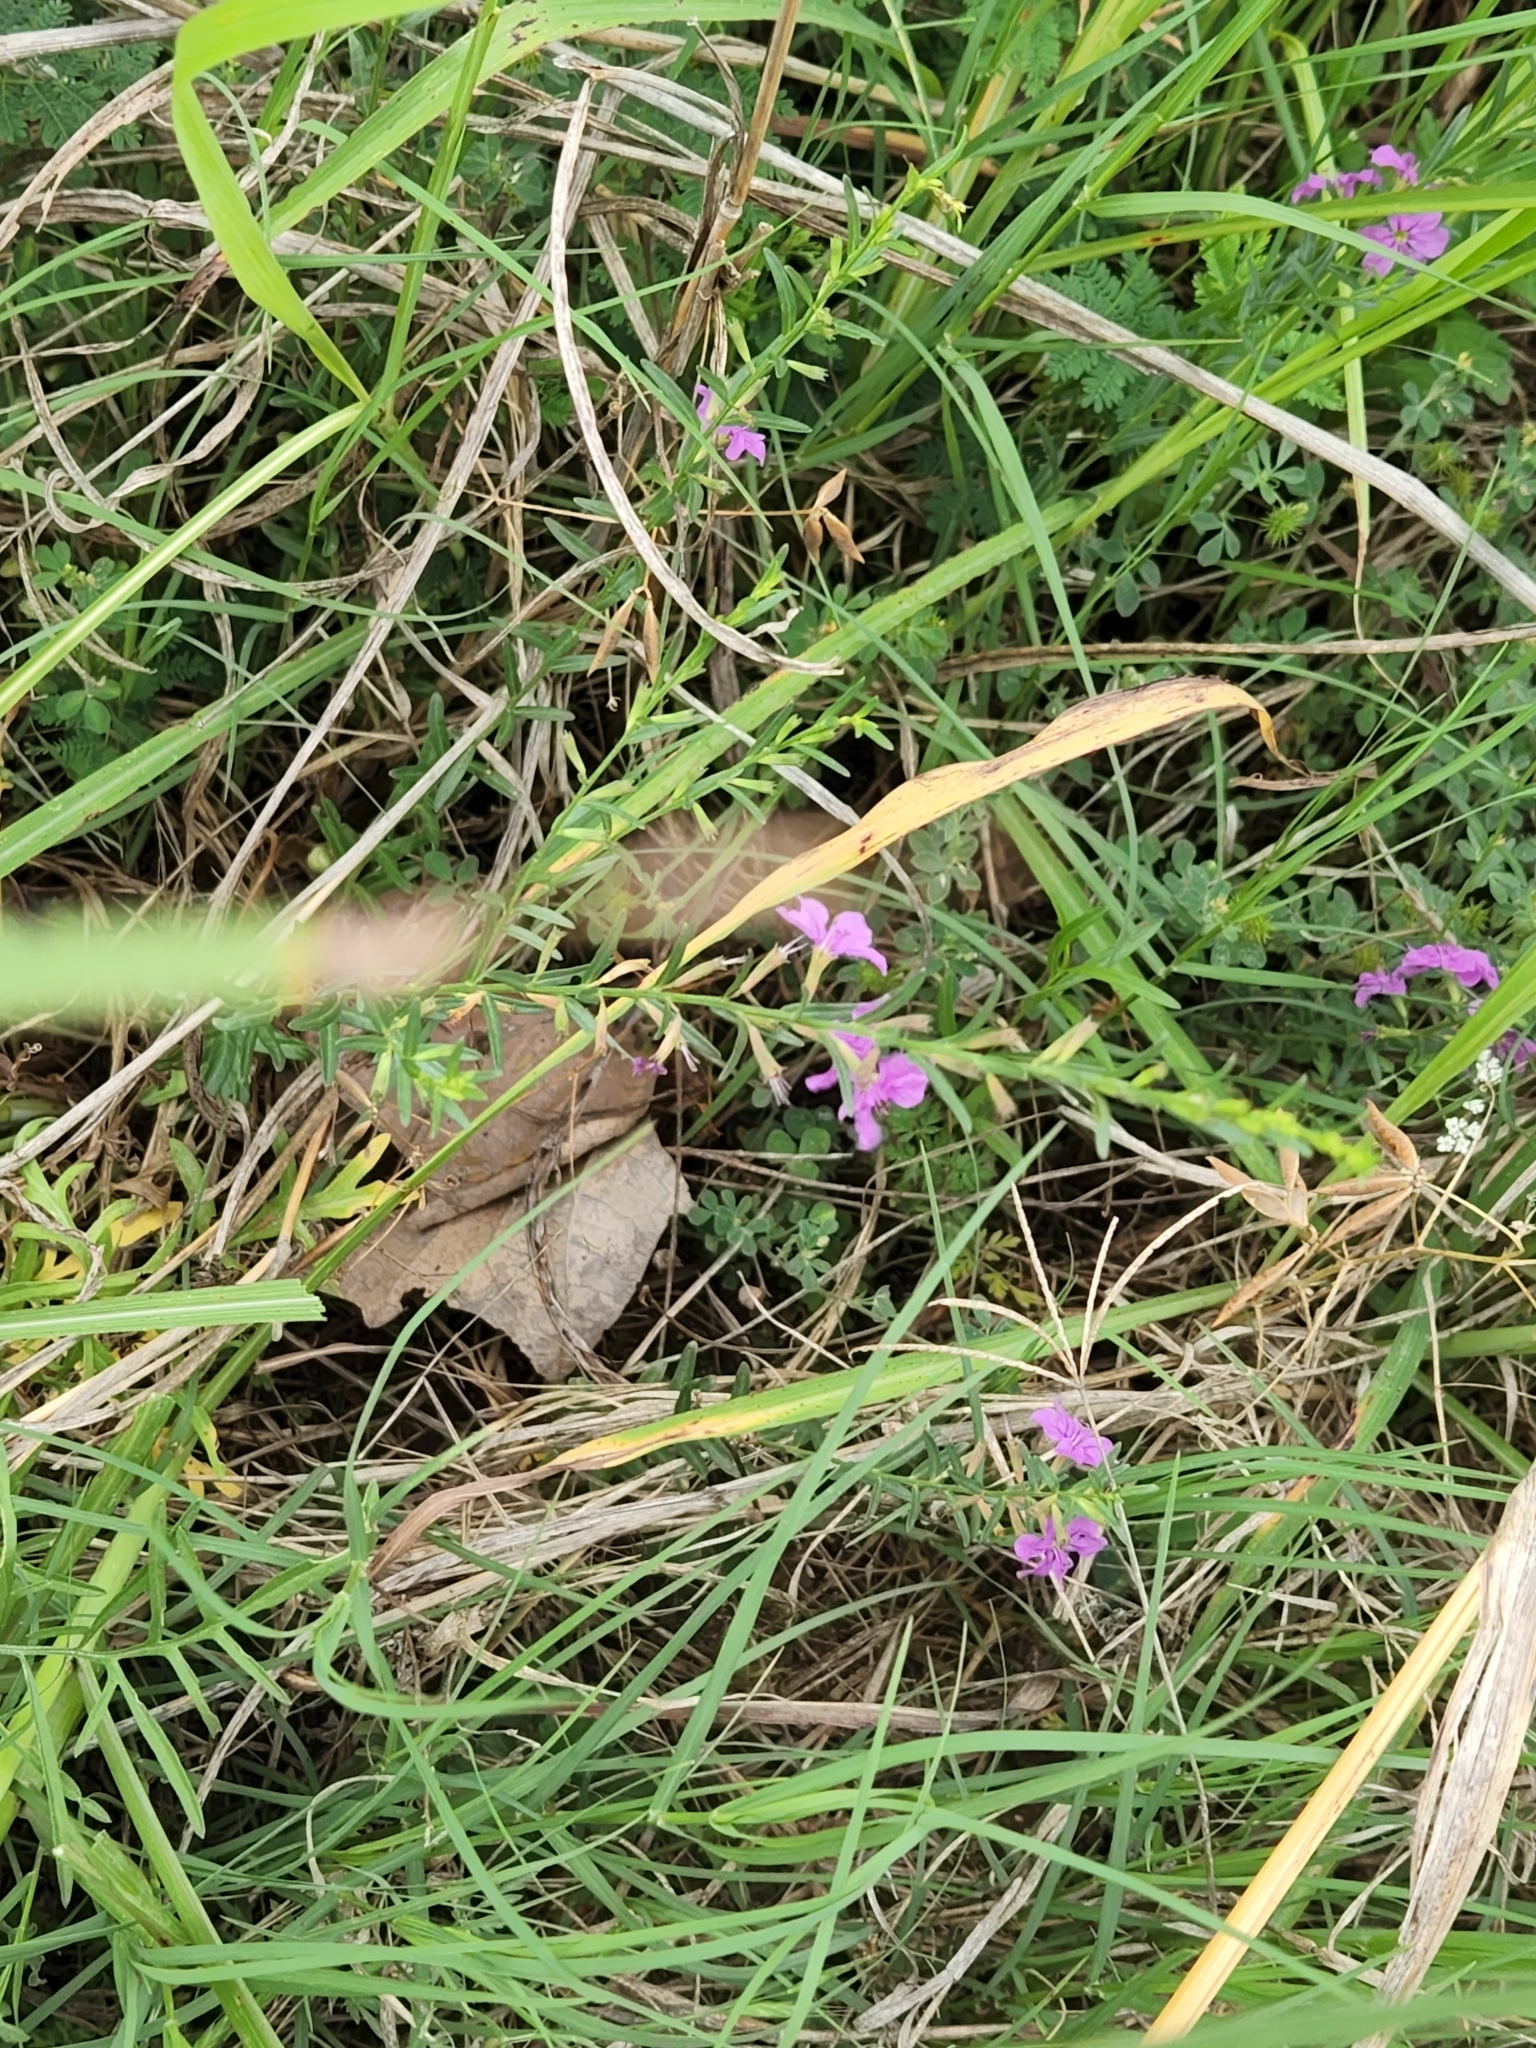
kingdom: Plantae
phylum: Tracheophyta
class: Magnoliopsida
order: Myrtales
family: Lythraceae
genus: Lythrum
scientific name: Lythrum californicum
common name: California loosestrife
